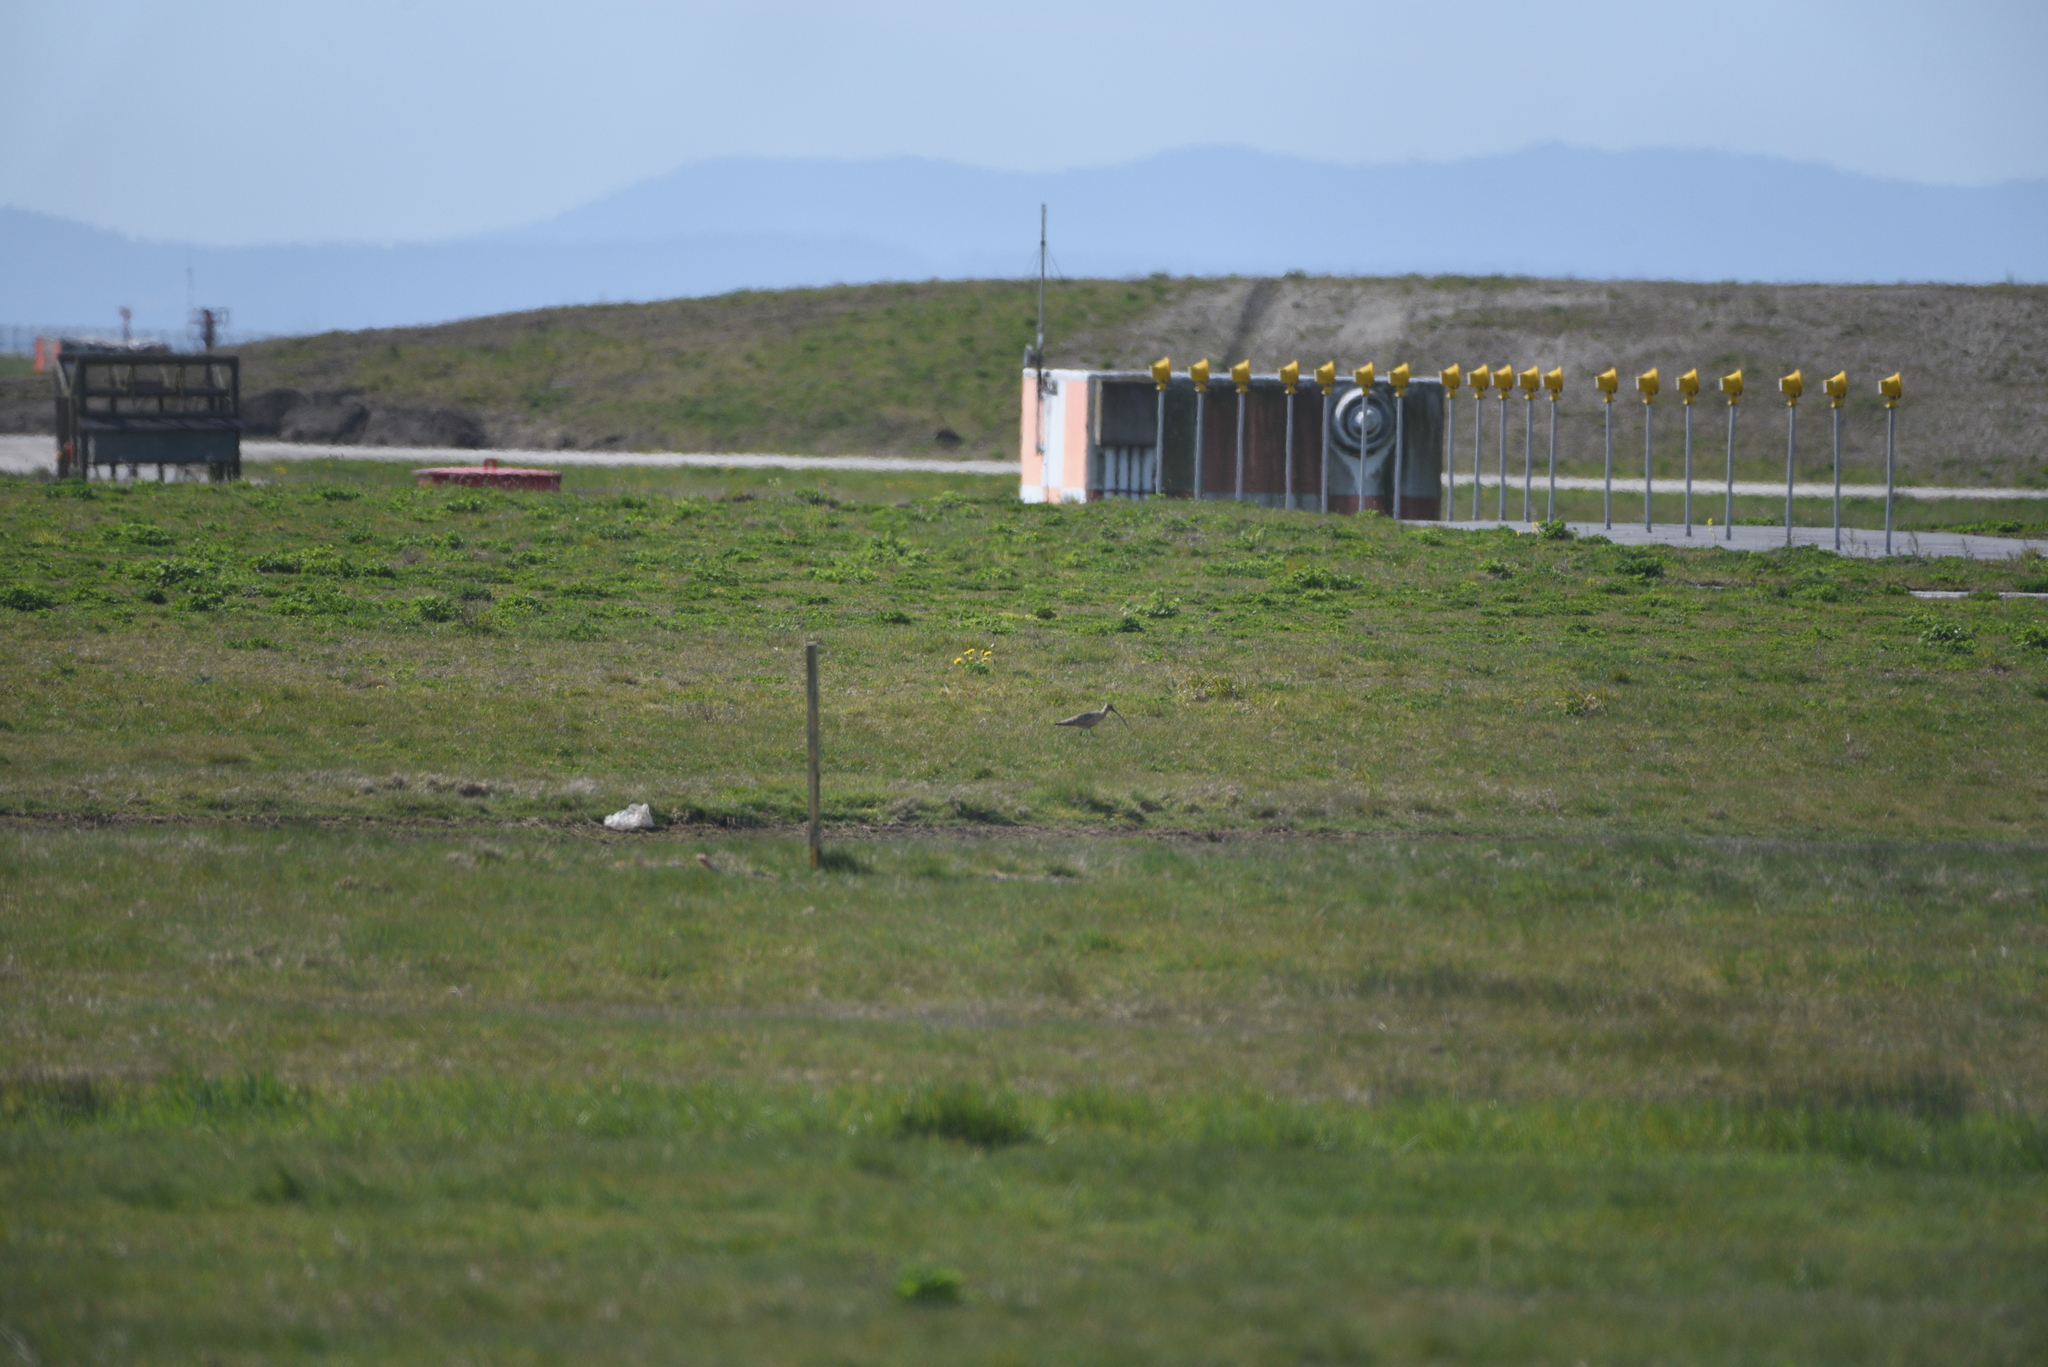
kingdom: Animalia
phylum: Chordata
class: Aves
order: Charadriiformes
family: Scolopacidae
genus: Numenius
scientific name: Numenius americanus
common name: Long-billed curlew
